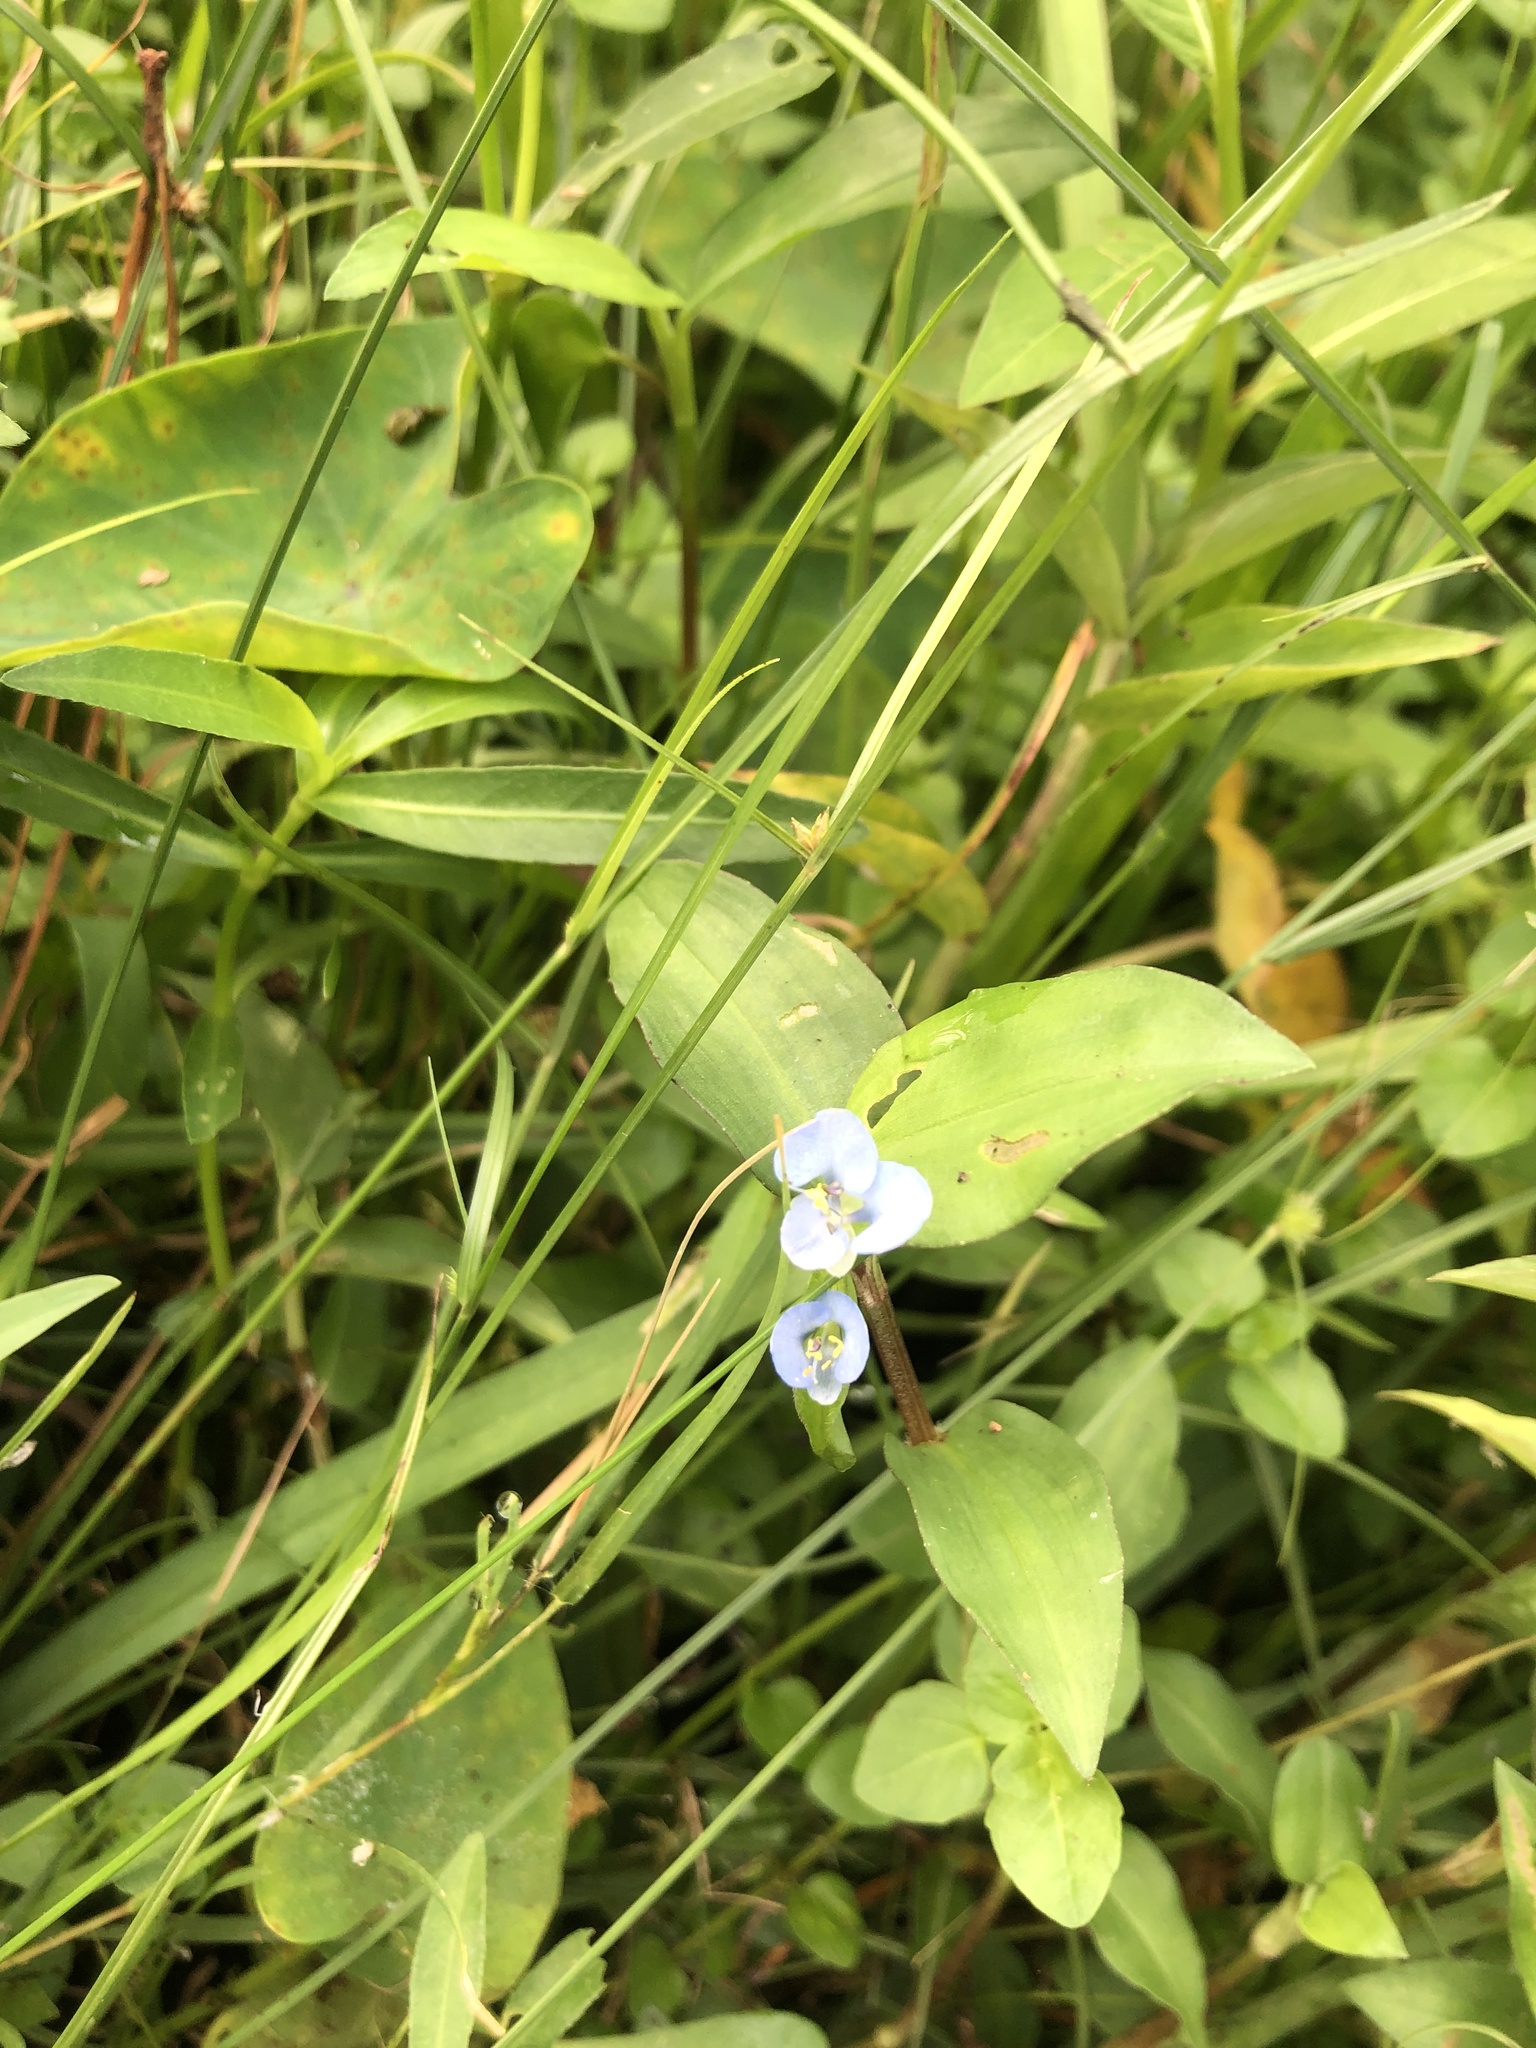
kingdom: Plantae
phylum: Tracheophyta
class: Liliopsida
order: Commelinales
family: Commelinaceae
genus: Commelina
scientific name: Commelina diffusa
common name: Climbing dayflower
